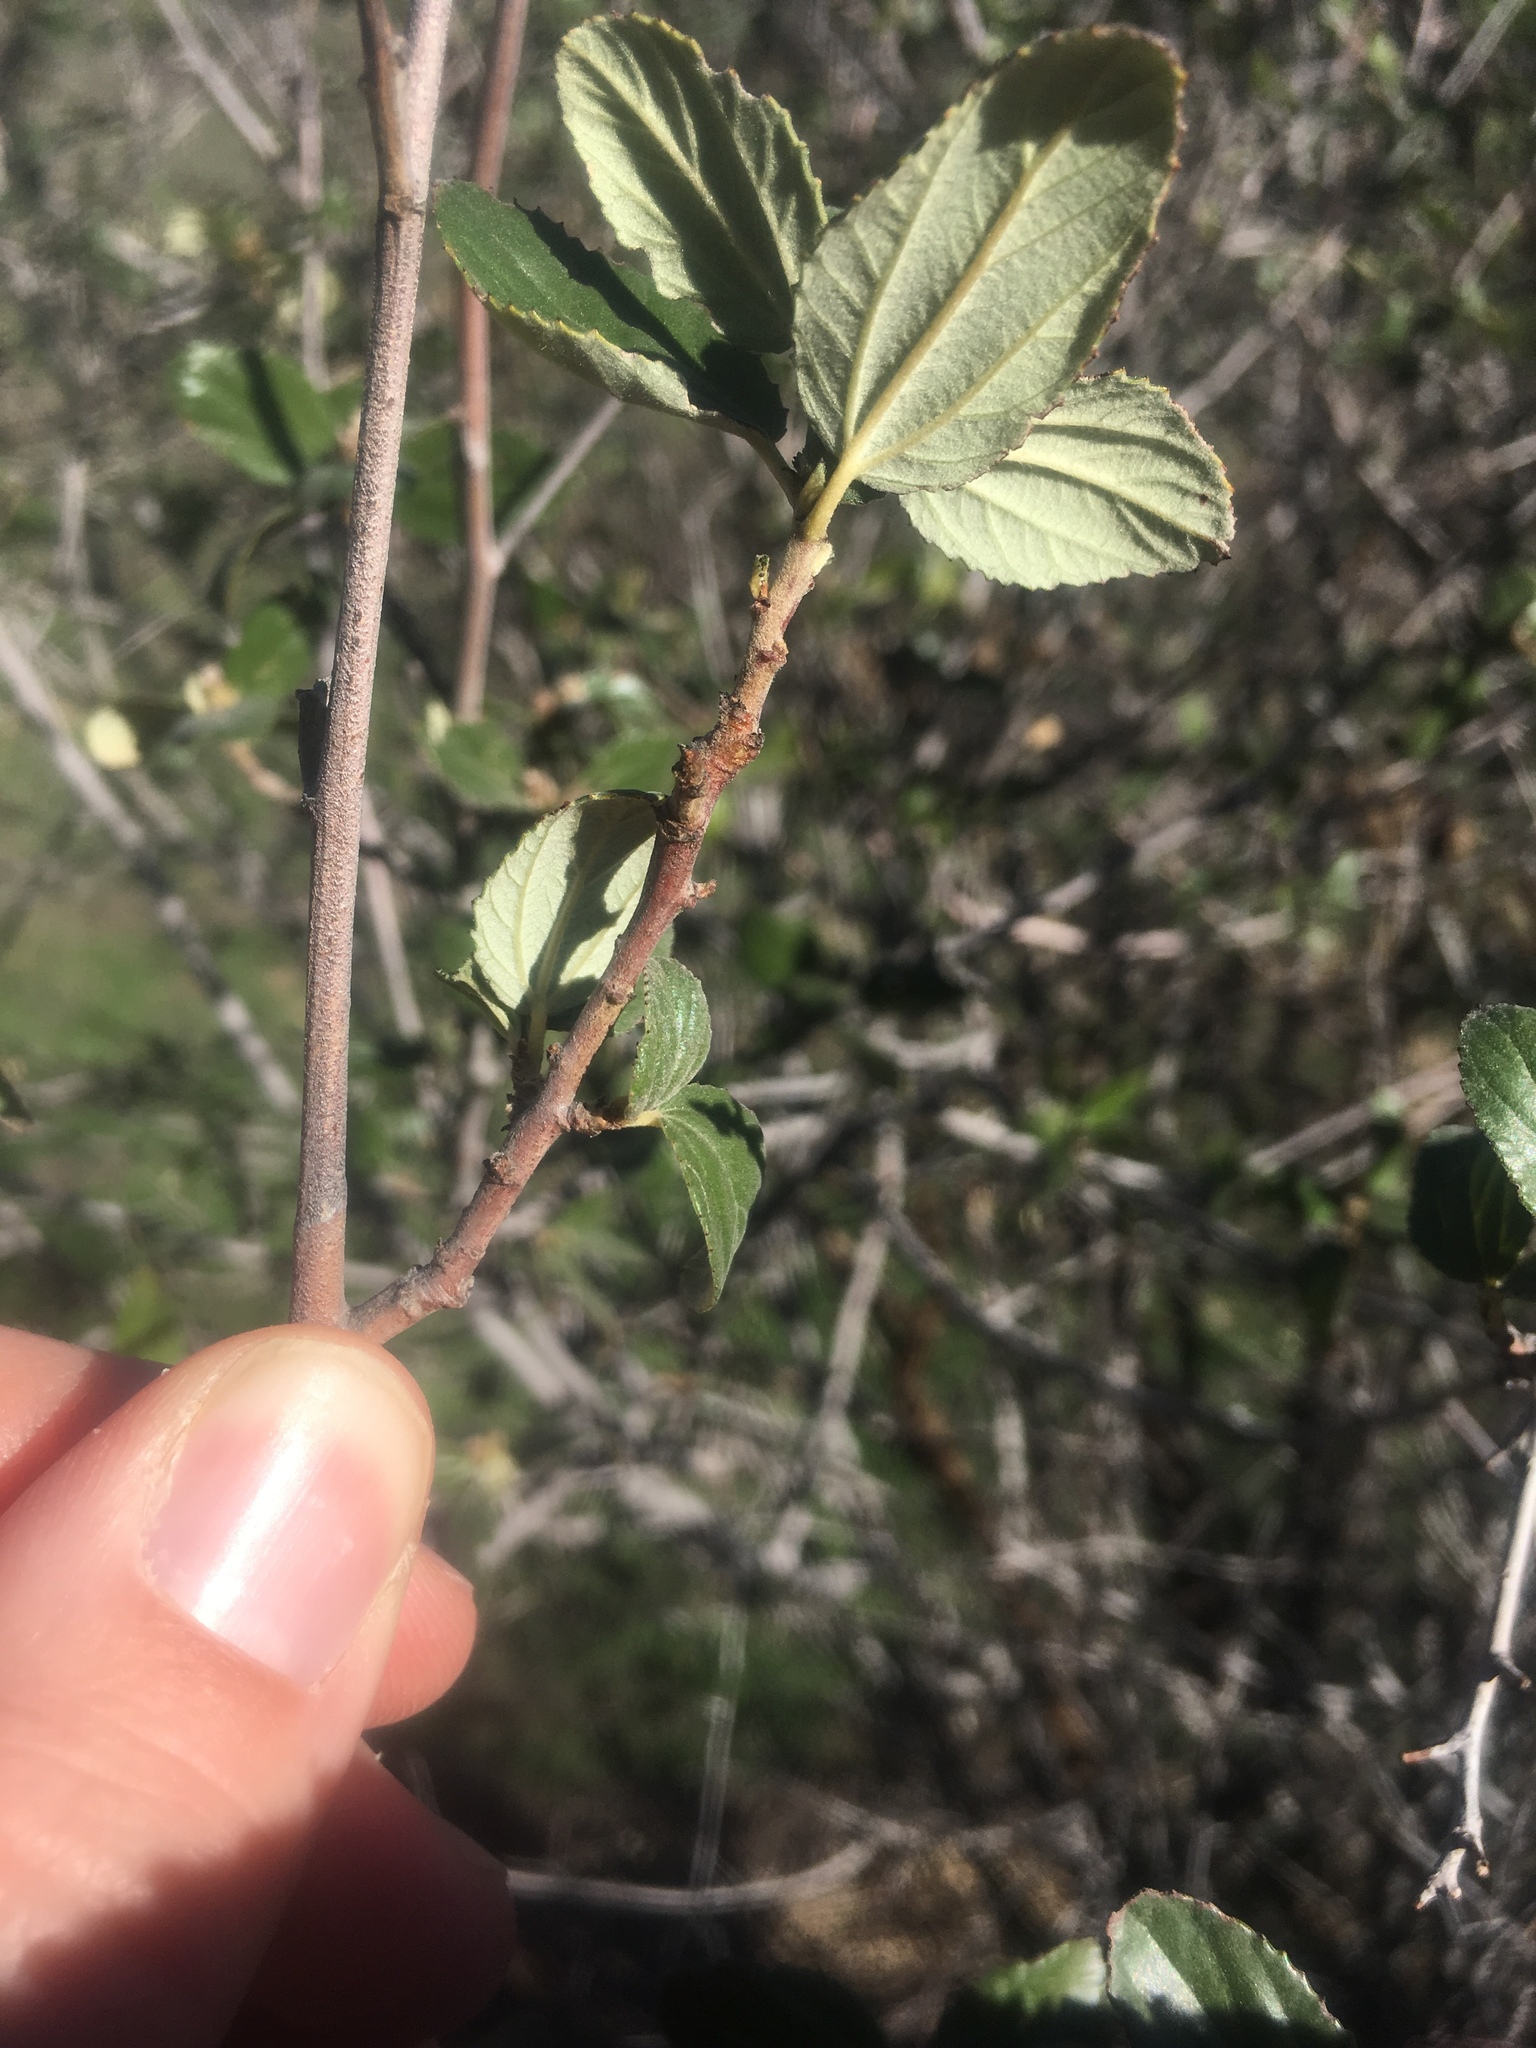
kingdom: Plantae
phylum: Tracheophyta
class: Magnoliopsida
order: Rosales
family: Rhamnaceae
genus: Ceanothus
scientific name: Ceanothus tomentosus
